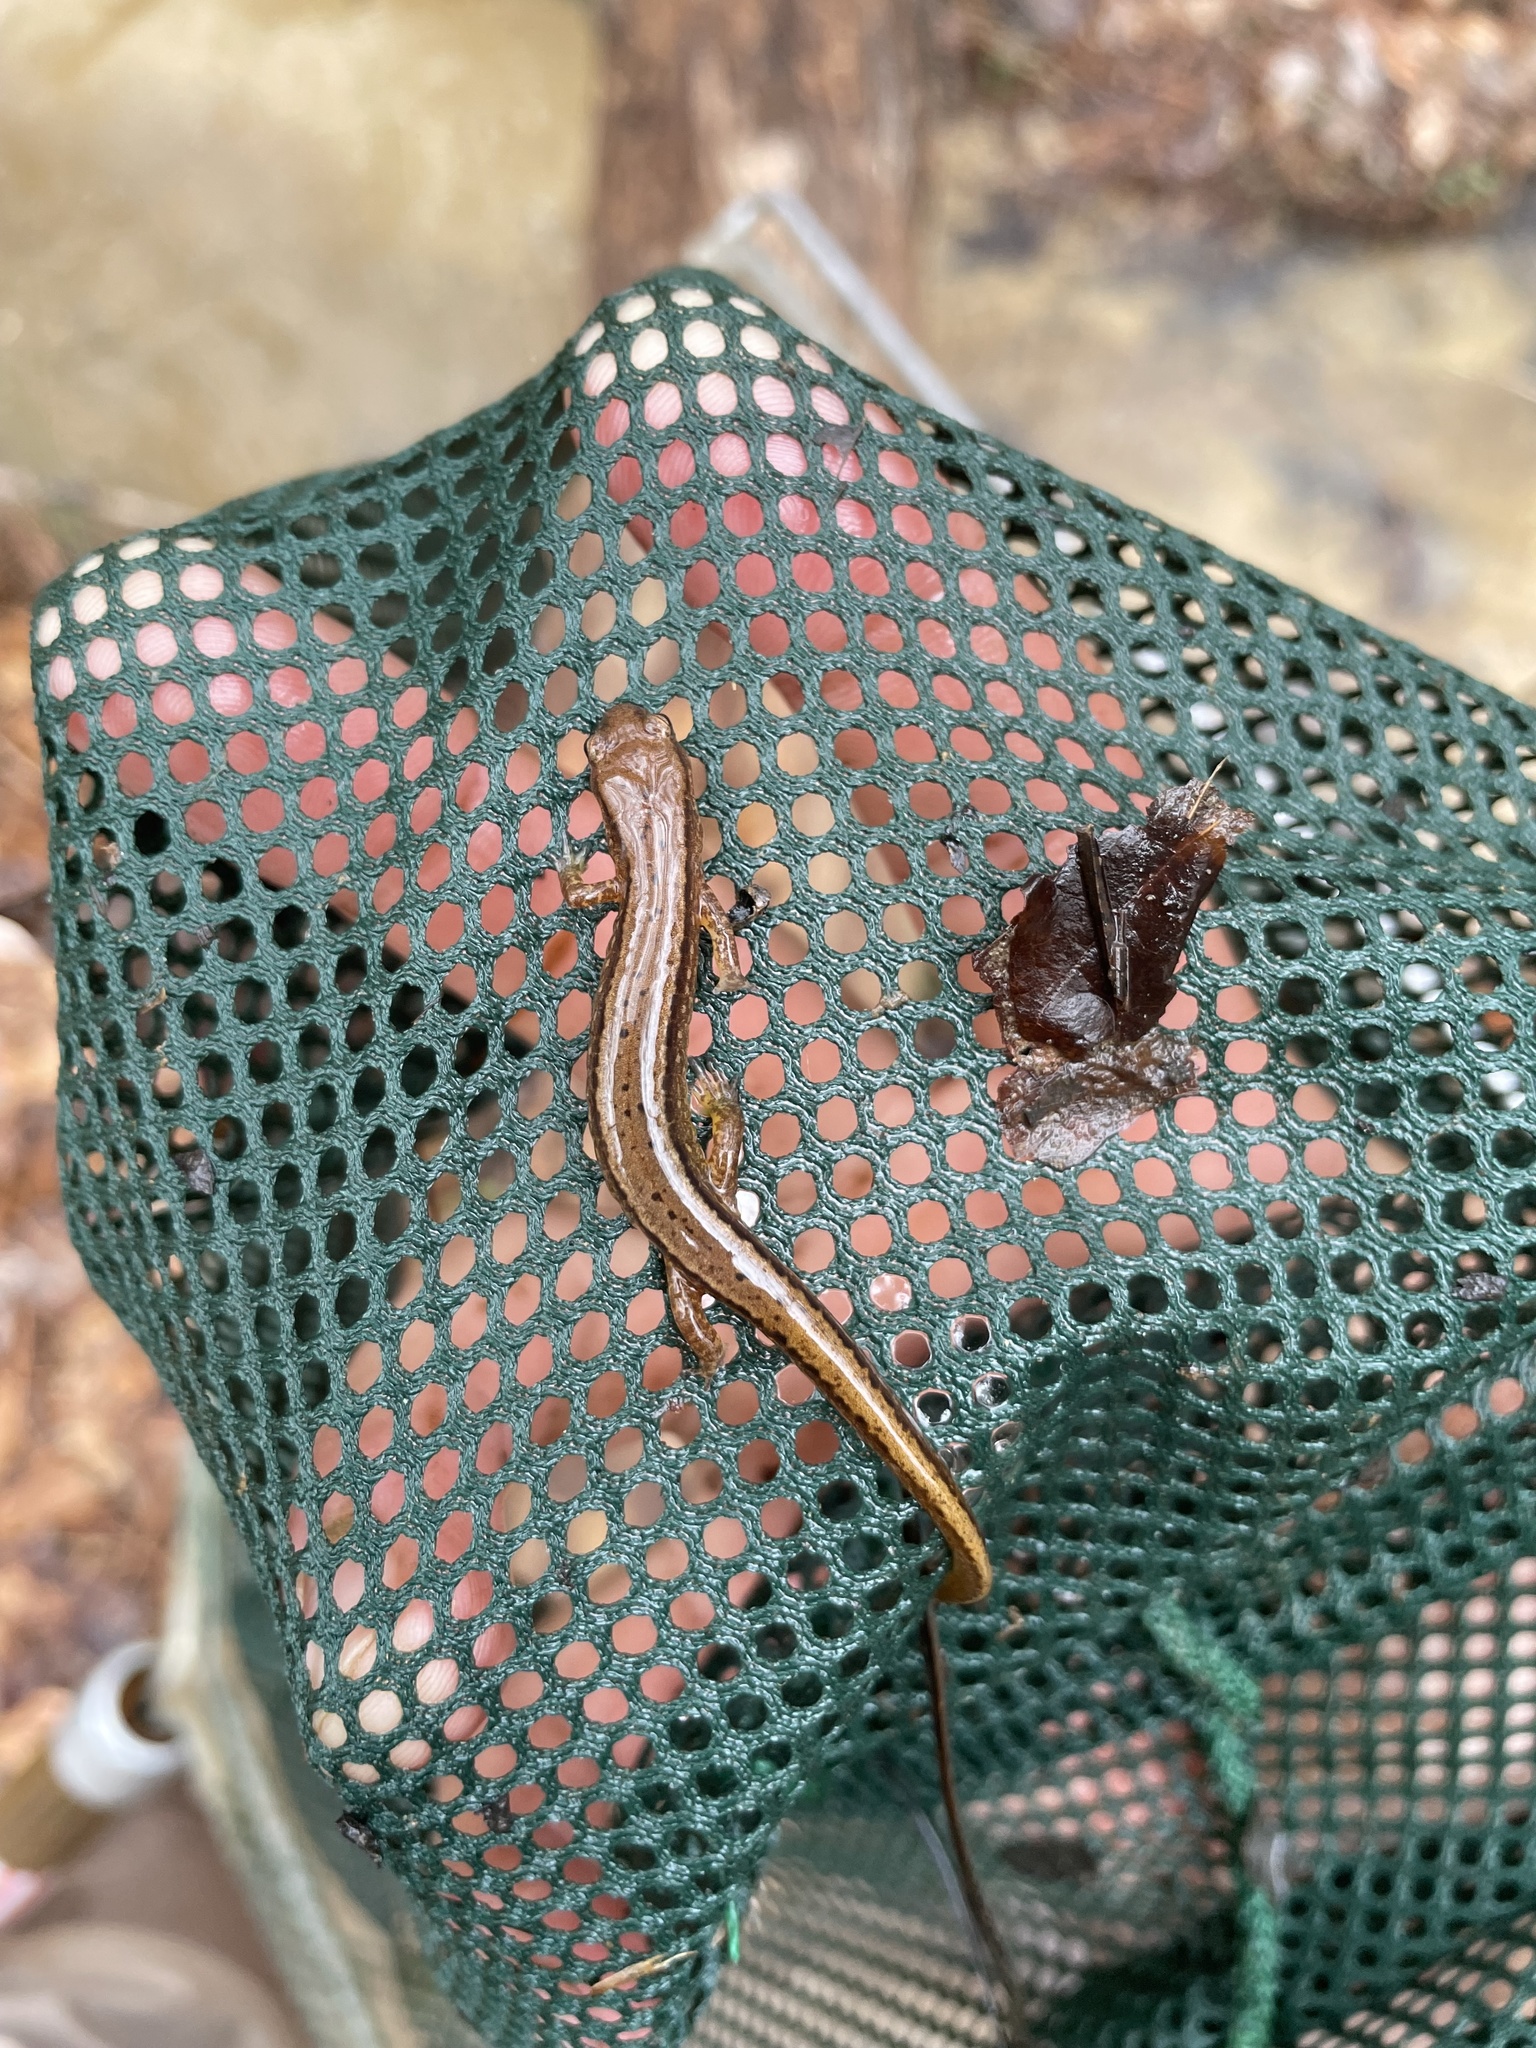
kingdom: Animalia
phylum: Chordata
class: Amphibia
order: Caudata
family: Plethodontidae
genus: Eurycea
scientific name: Eurycea cirrigera
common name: Southern two-lined salamander
